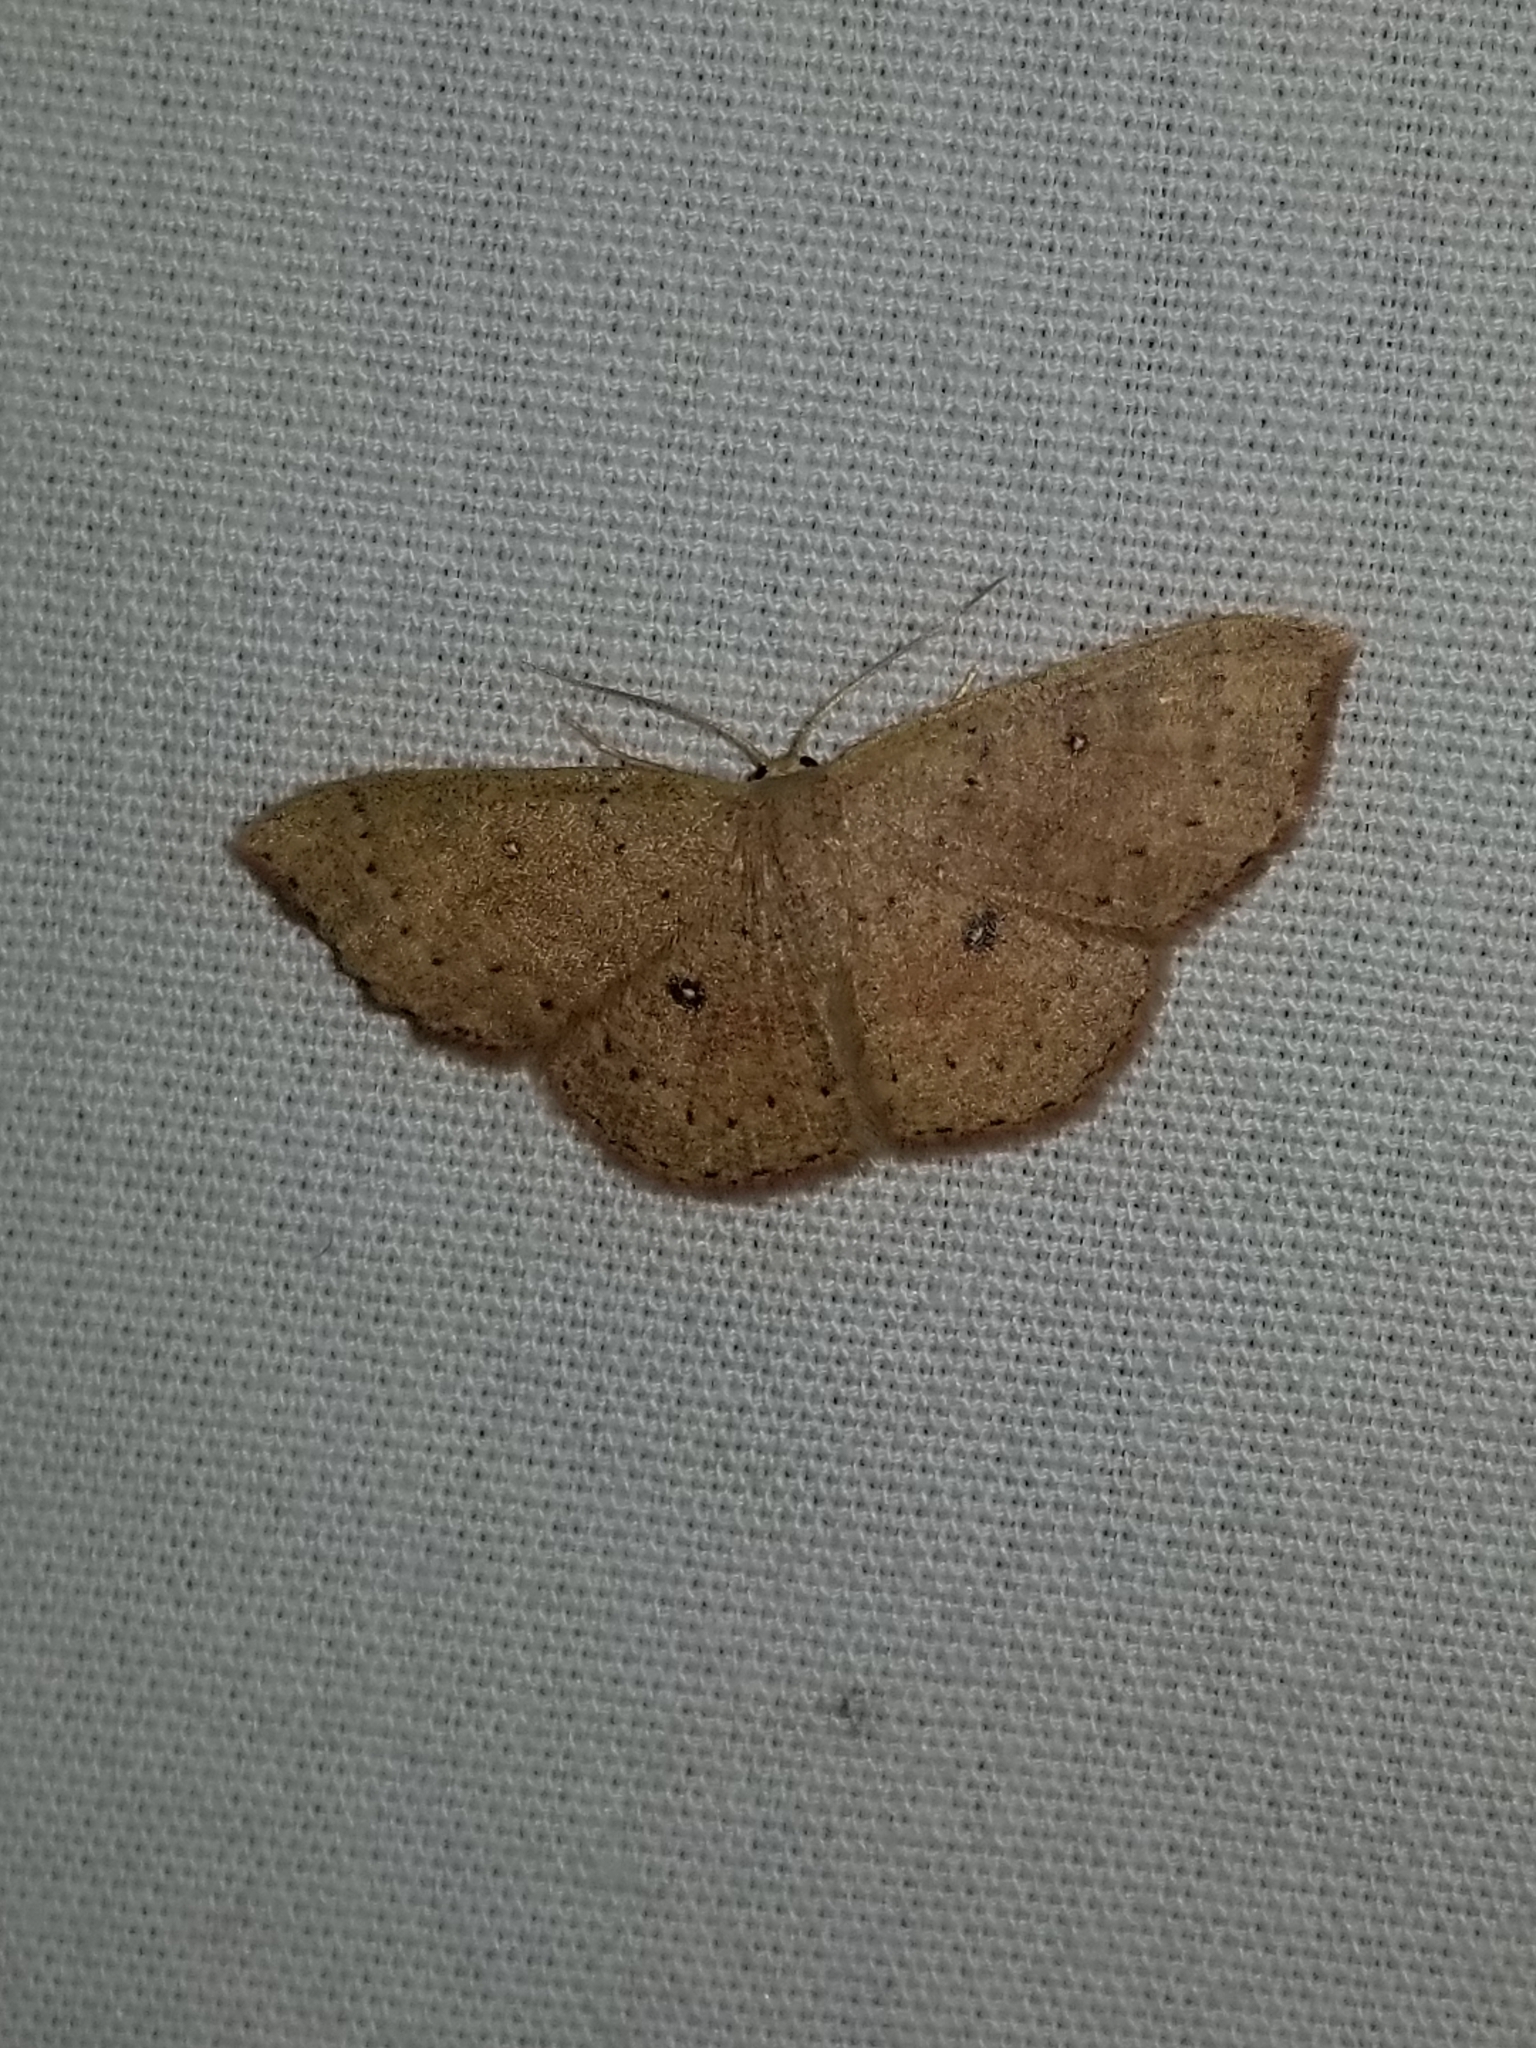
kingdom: Animalia
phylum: Arthropoda
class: Insecta
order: Lepidoptera
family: Geometridae
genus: Cyclophora
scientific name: Cyclophora packardi
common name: Packard's wave
